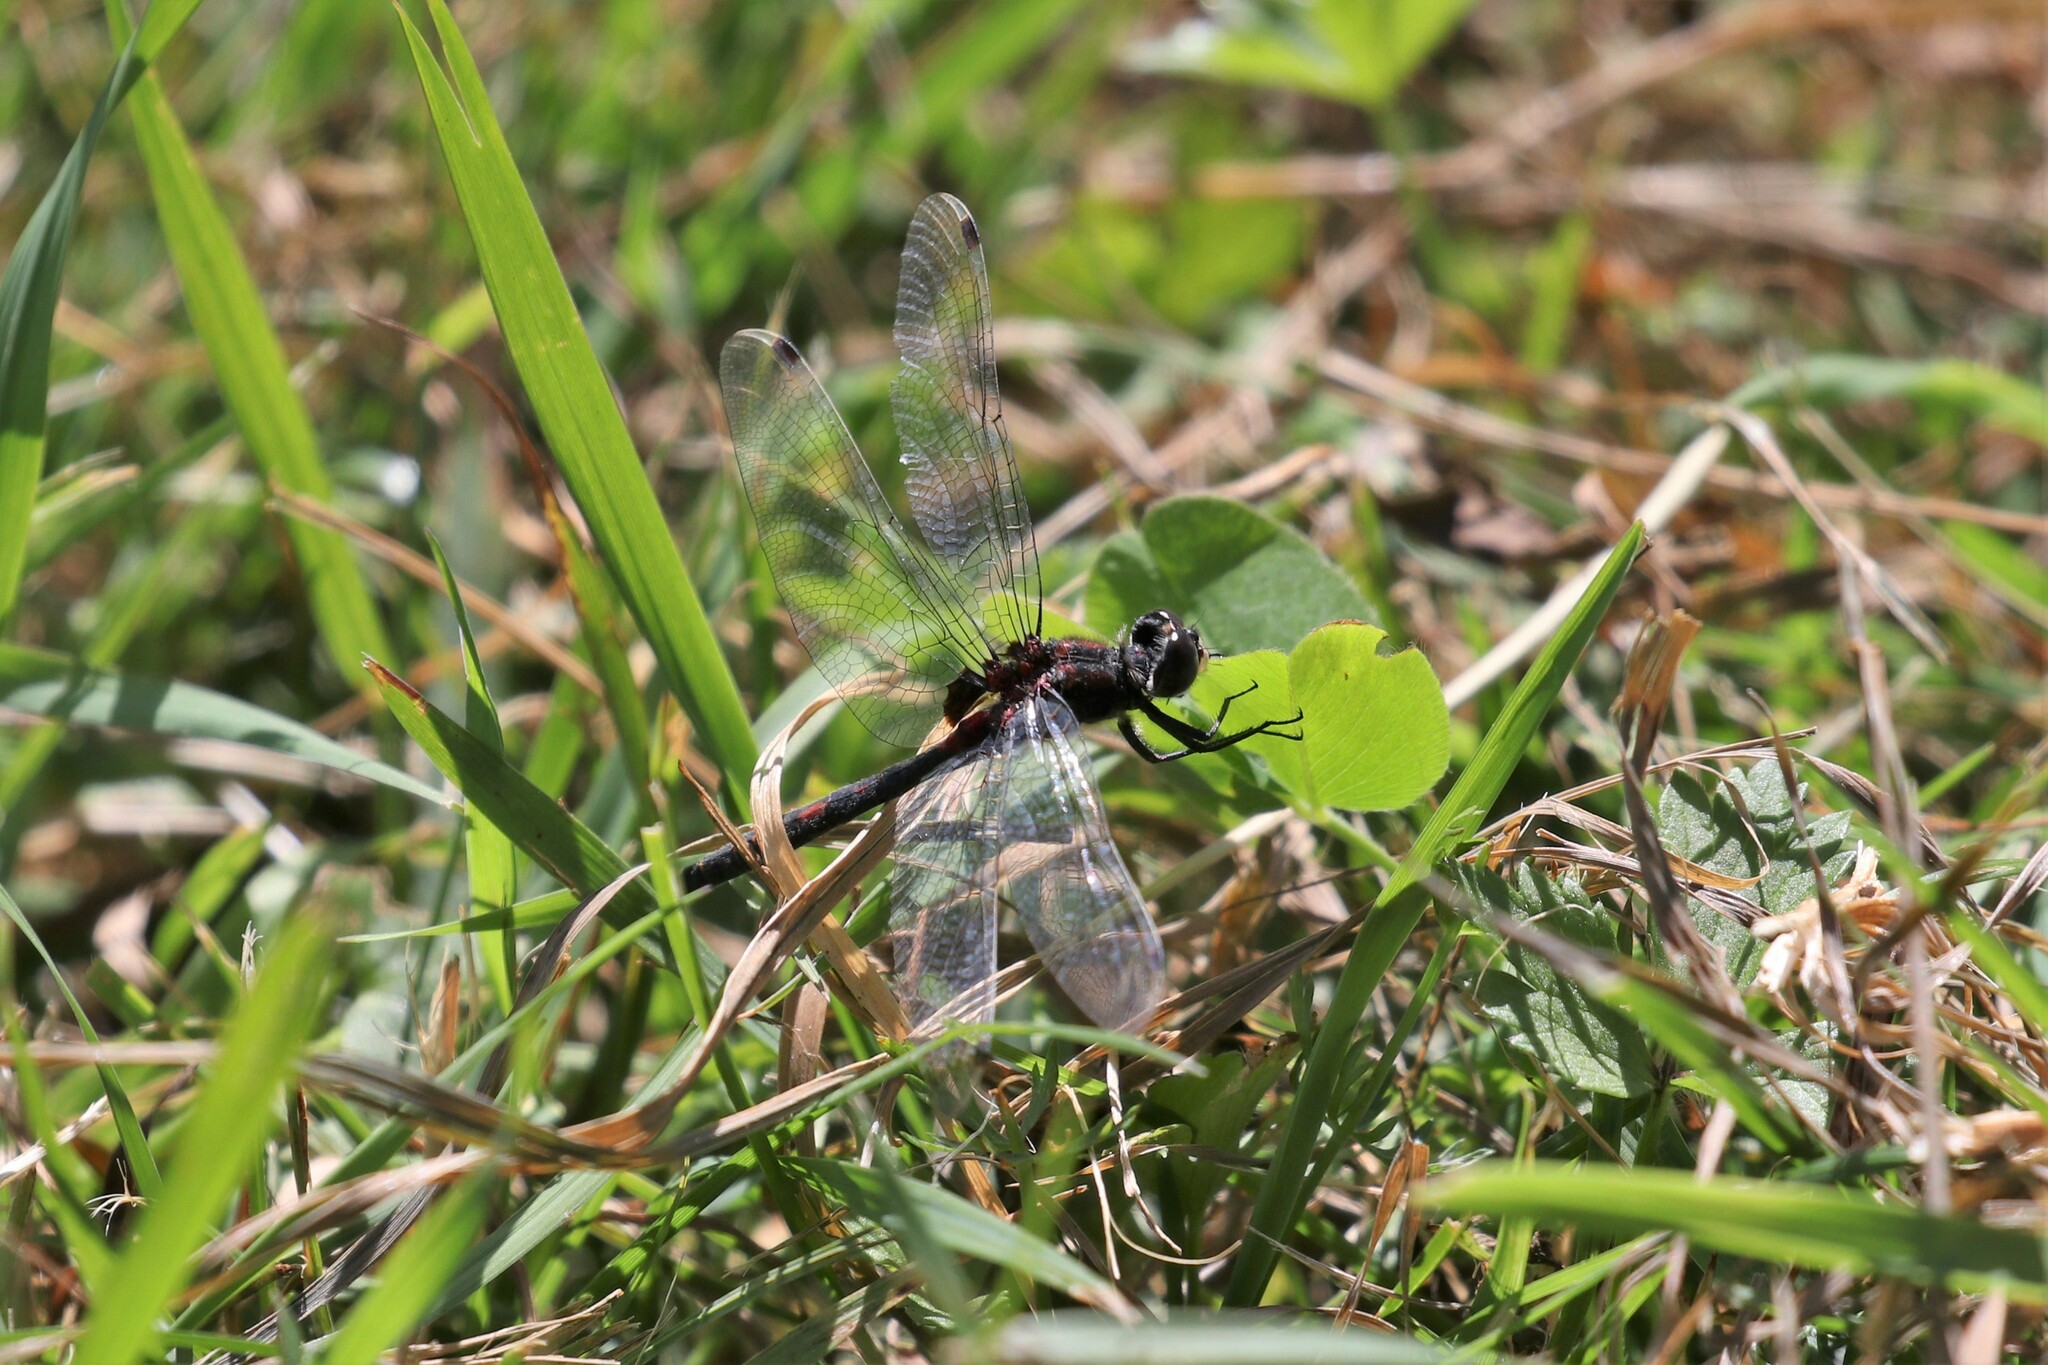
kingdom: Animalia
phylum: Arthropoda
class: Insecta
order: Odonata
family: Libellulidae
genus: Leucorrhinia
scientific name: Leucorrhinia dubia
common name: White-faced darter
